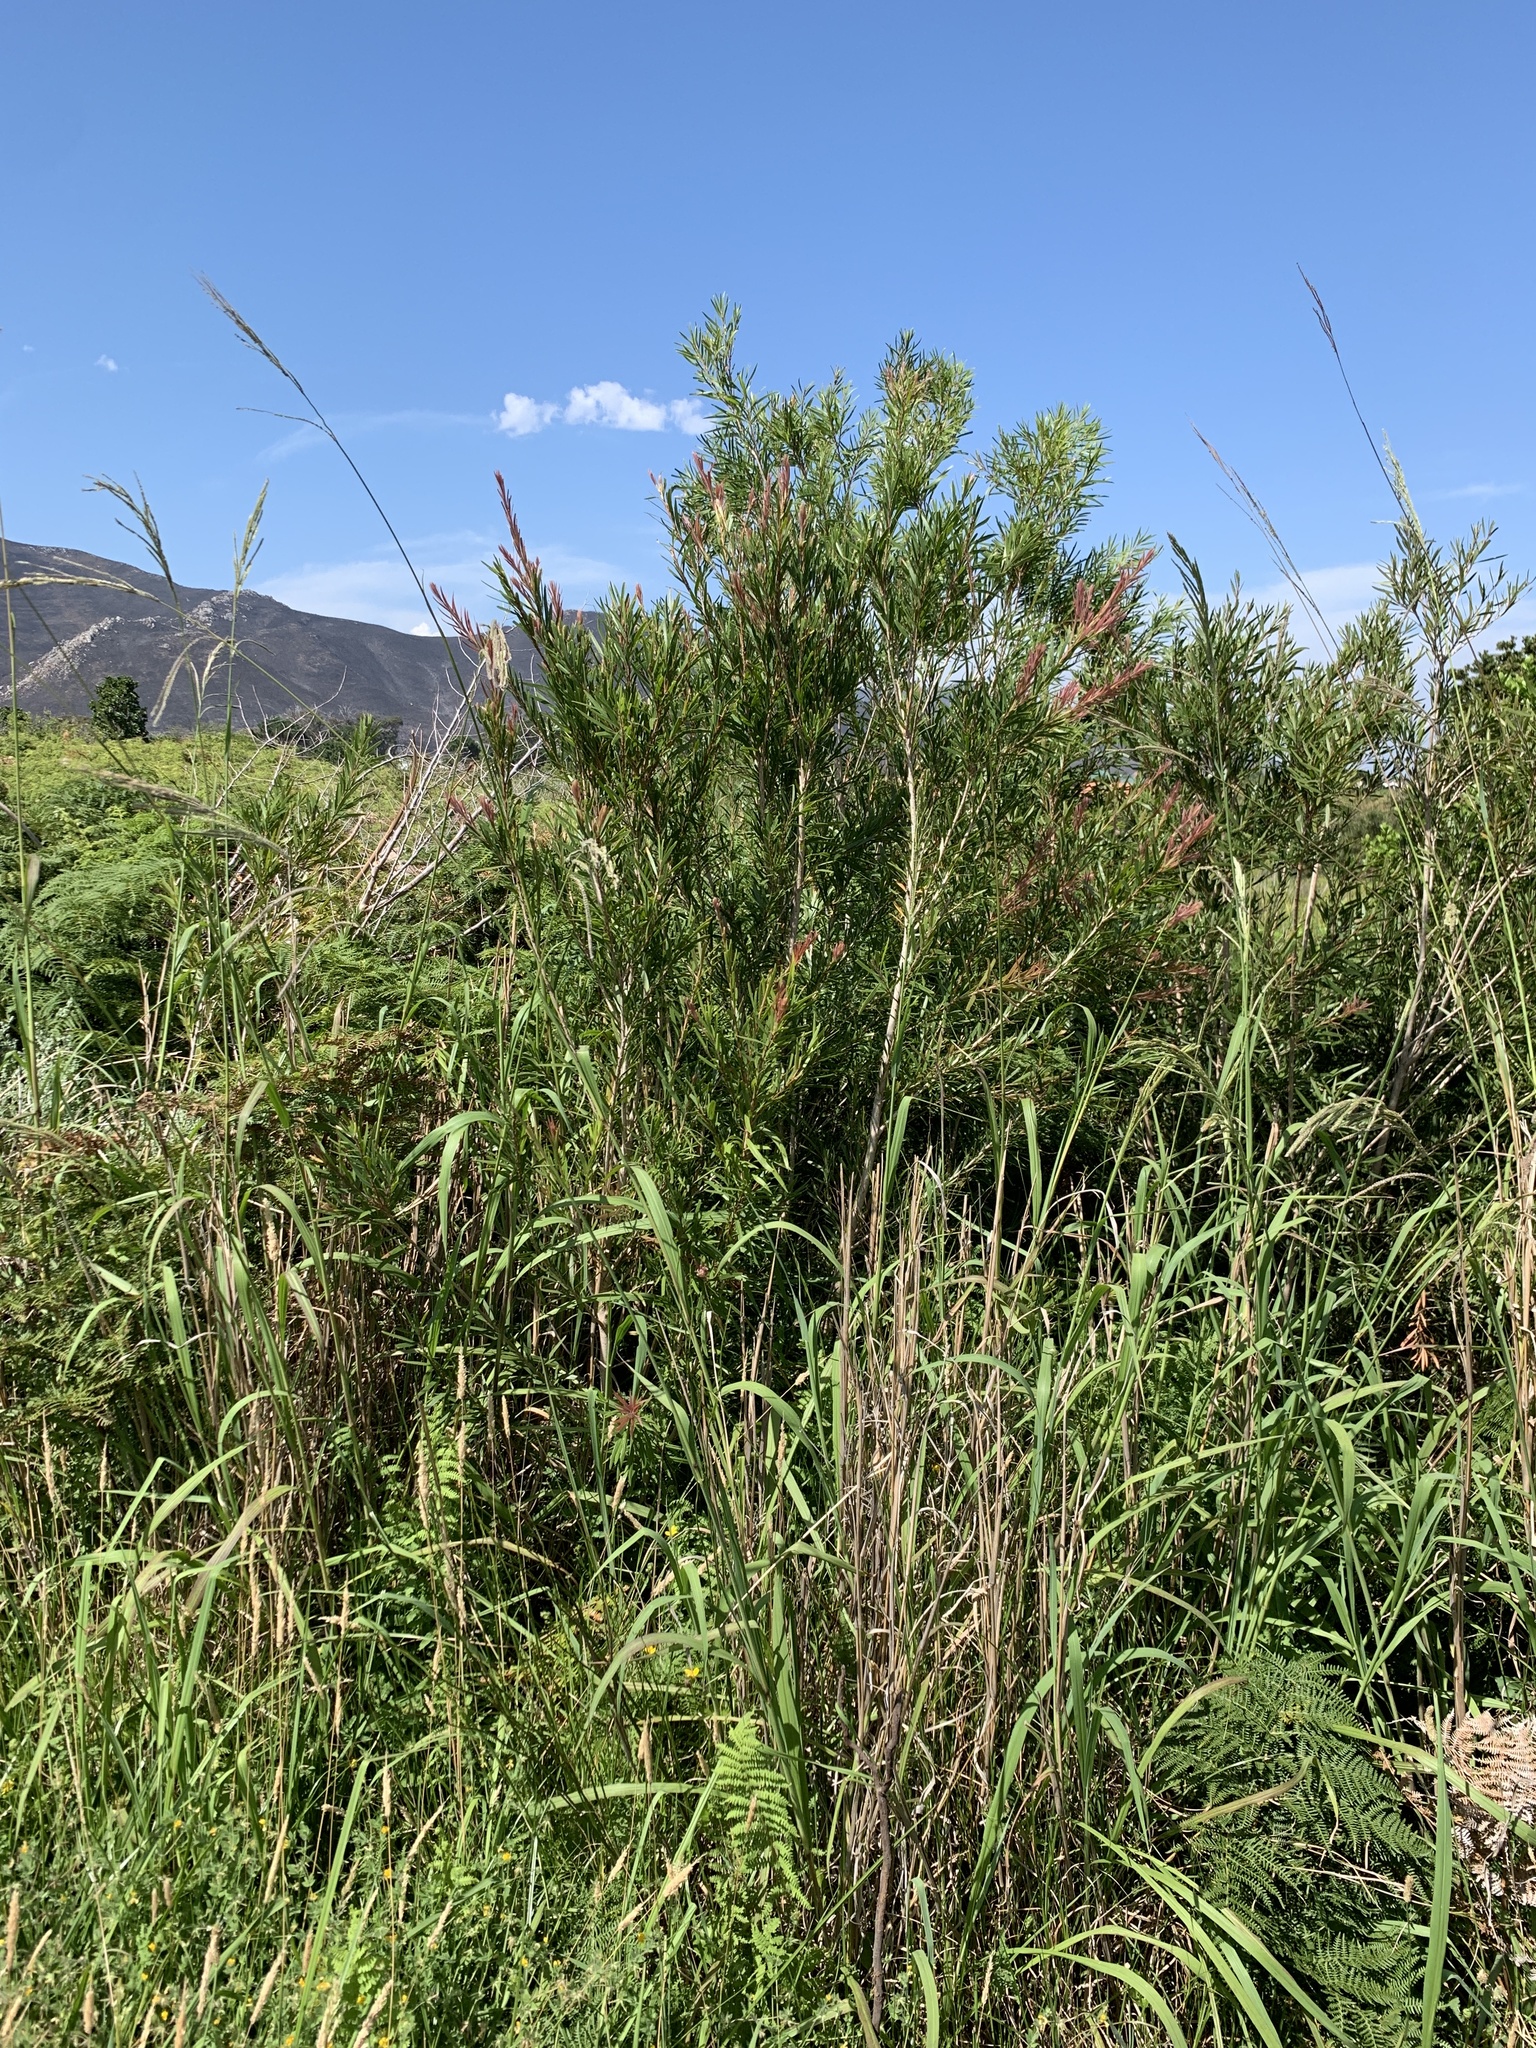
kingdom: Plantae
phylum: Tracheophyta
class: Magnoliopsida
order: Myrtales
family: Myrtaceae
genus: Callistemon
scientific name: Callistemon viminalis
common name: Drooping bottlebrush
